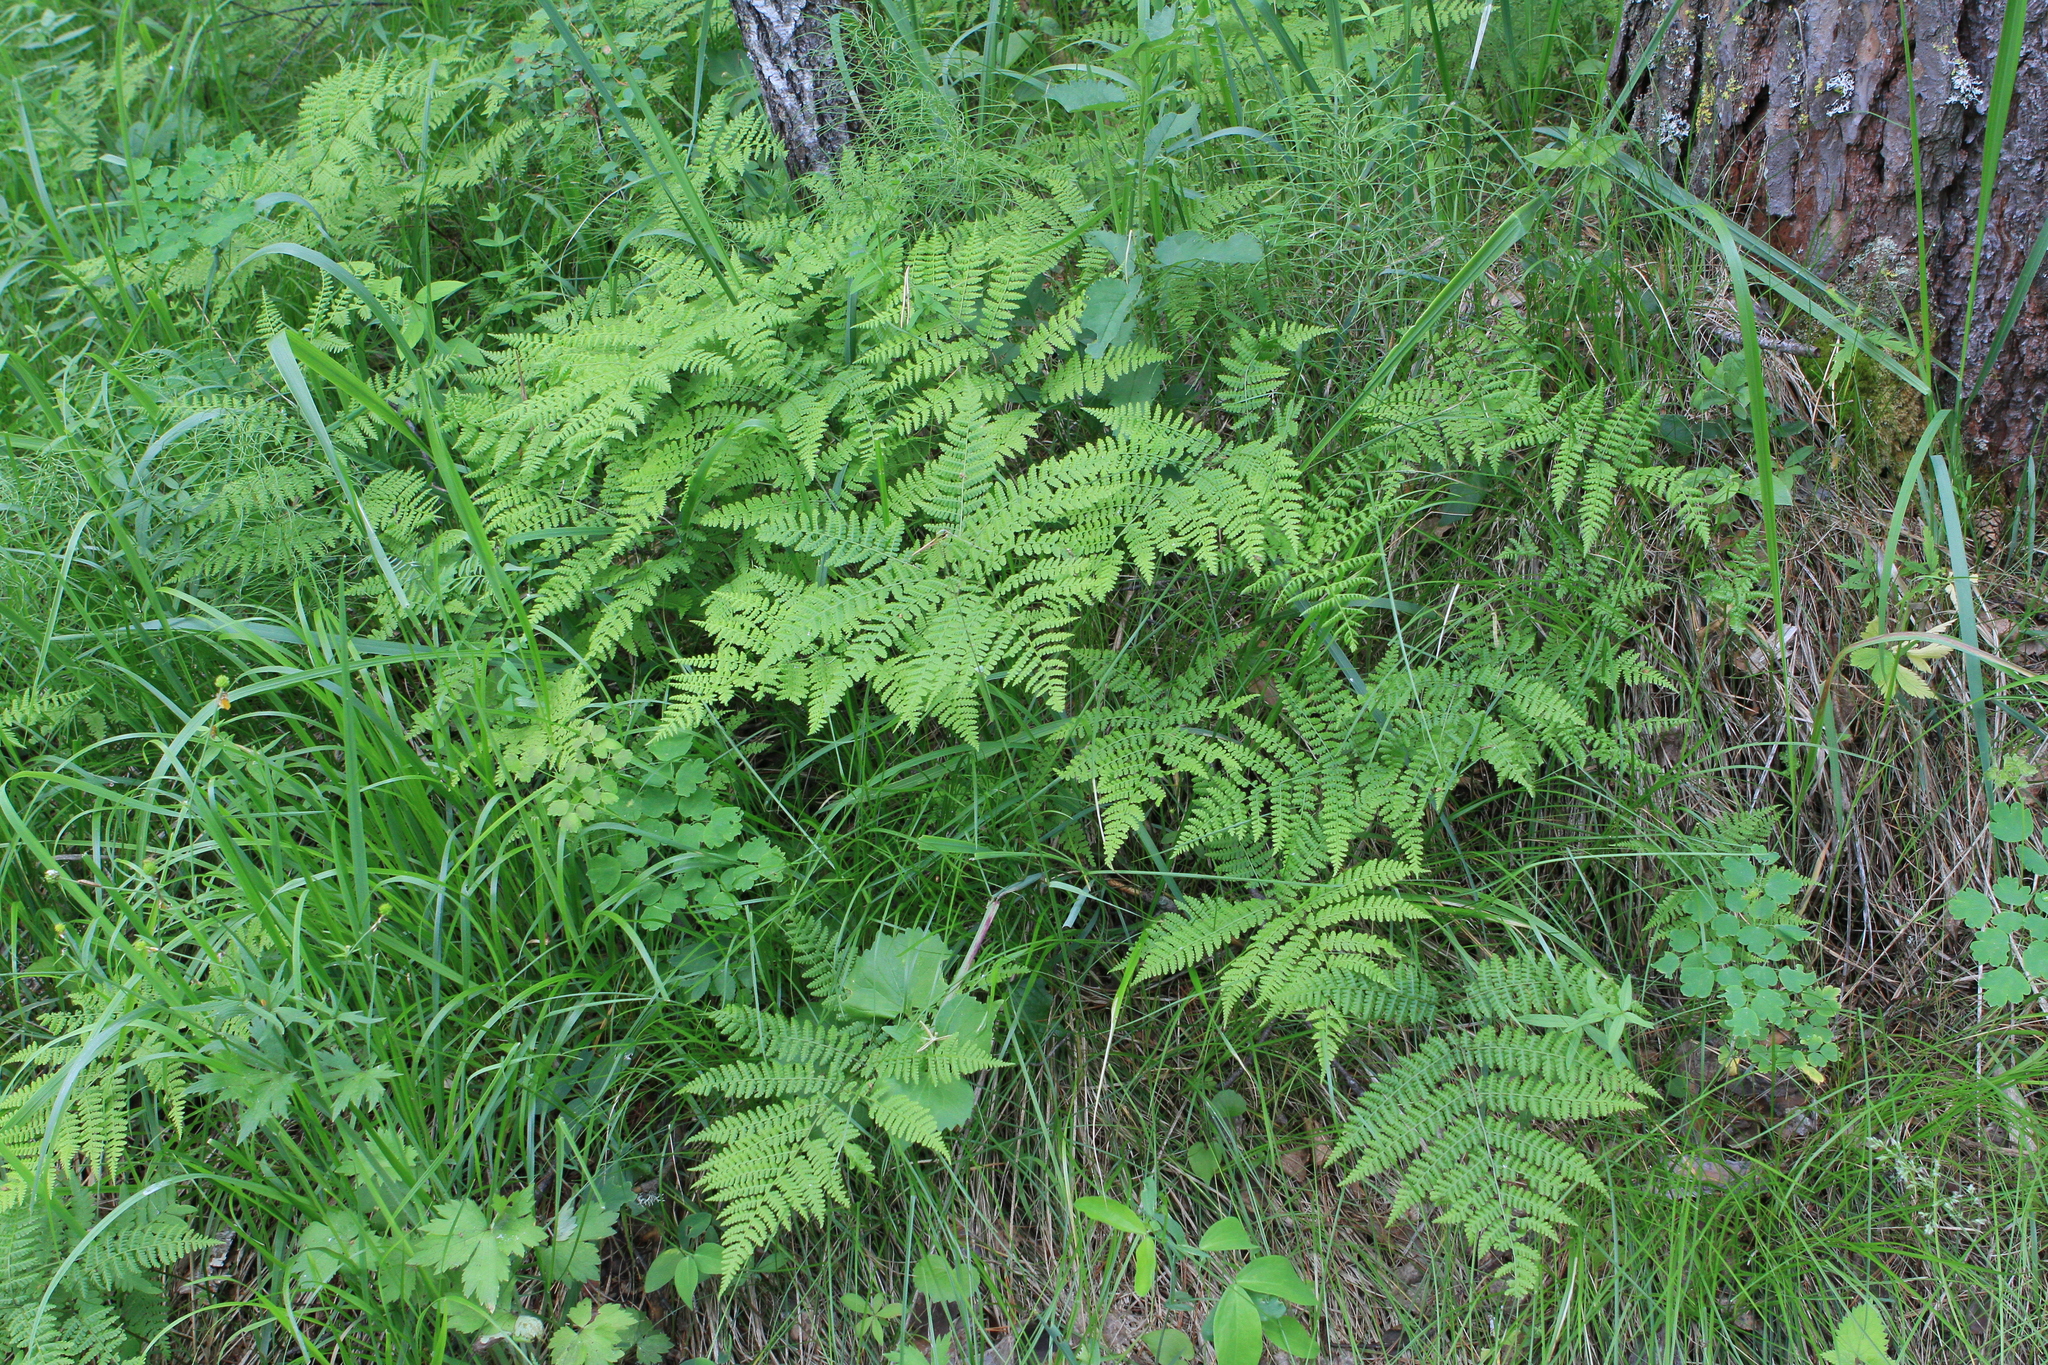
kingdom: Plantae
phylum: Tracheophyta
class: Polypodiopsida
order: Polypodiales
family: Athyriaceae
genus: Diplazium
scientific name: Diplazium sibiricum
